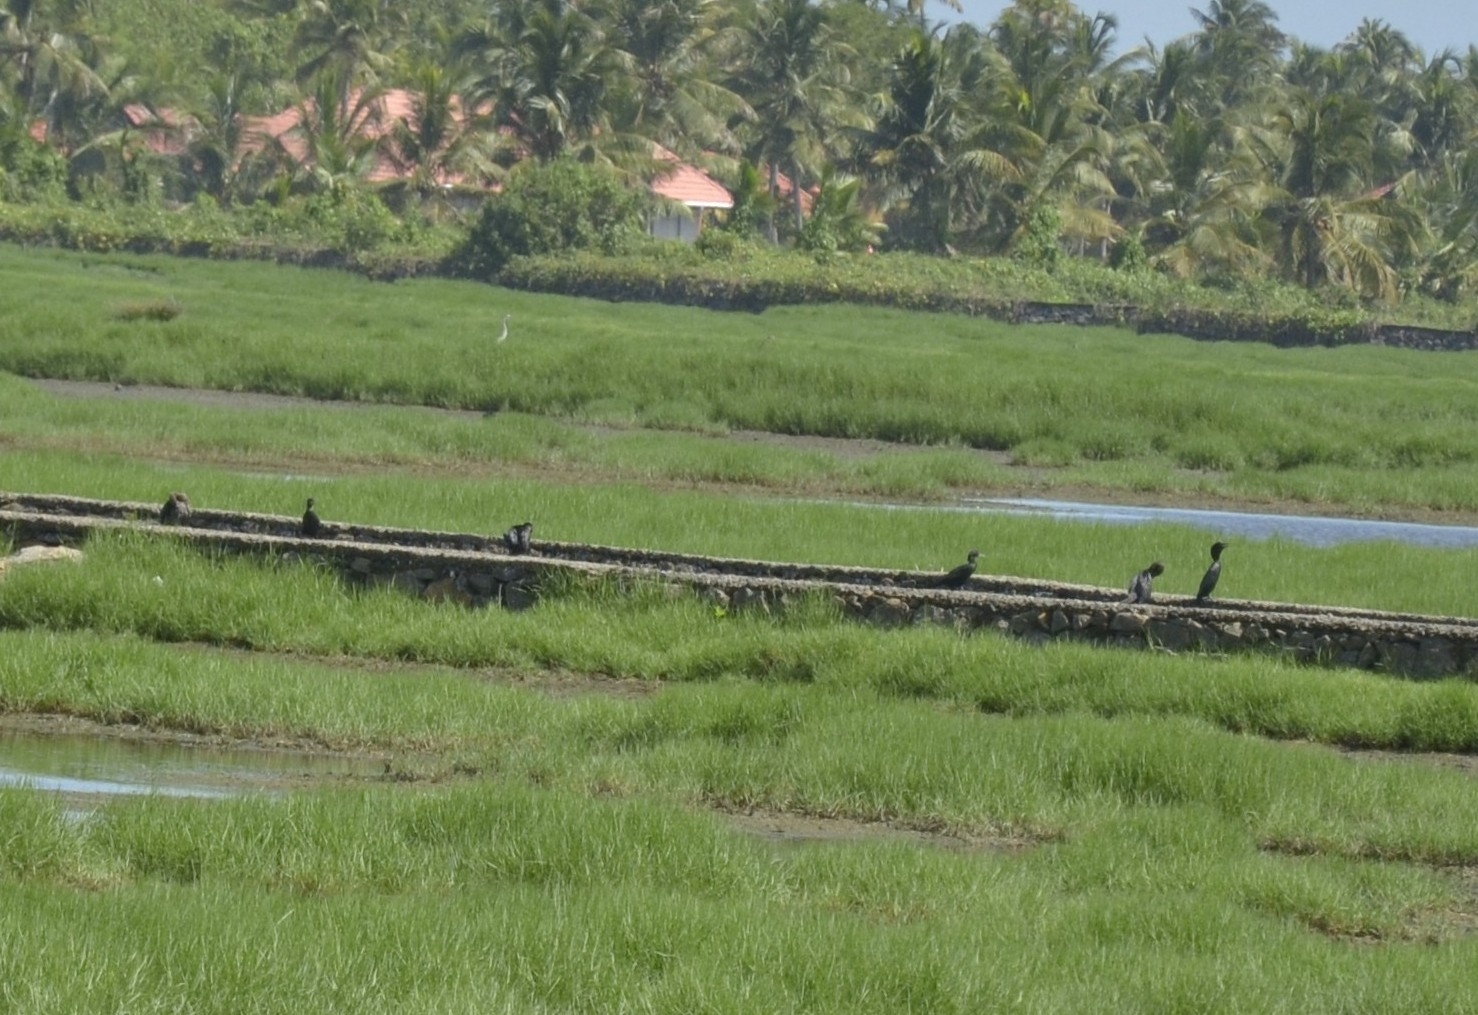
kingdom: Animalia
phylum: Chordata
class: Aves
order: Suliformes
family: Phalacrocoracidae
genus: Microcarbo
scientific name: Microcarbo niger
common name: Little cormorant
